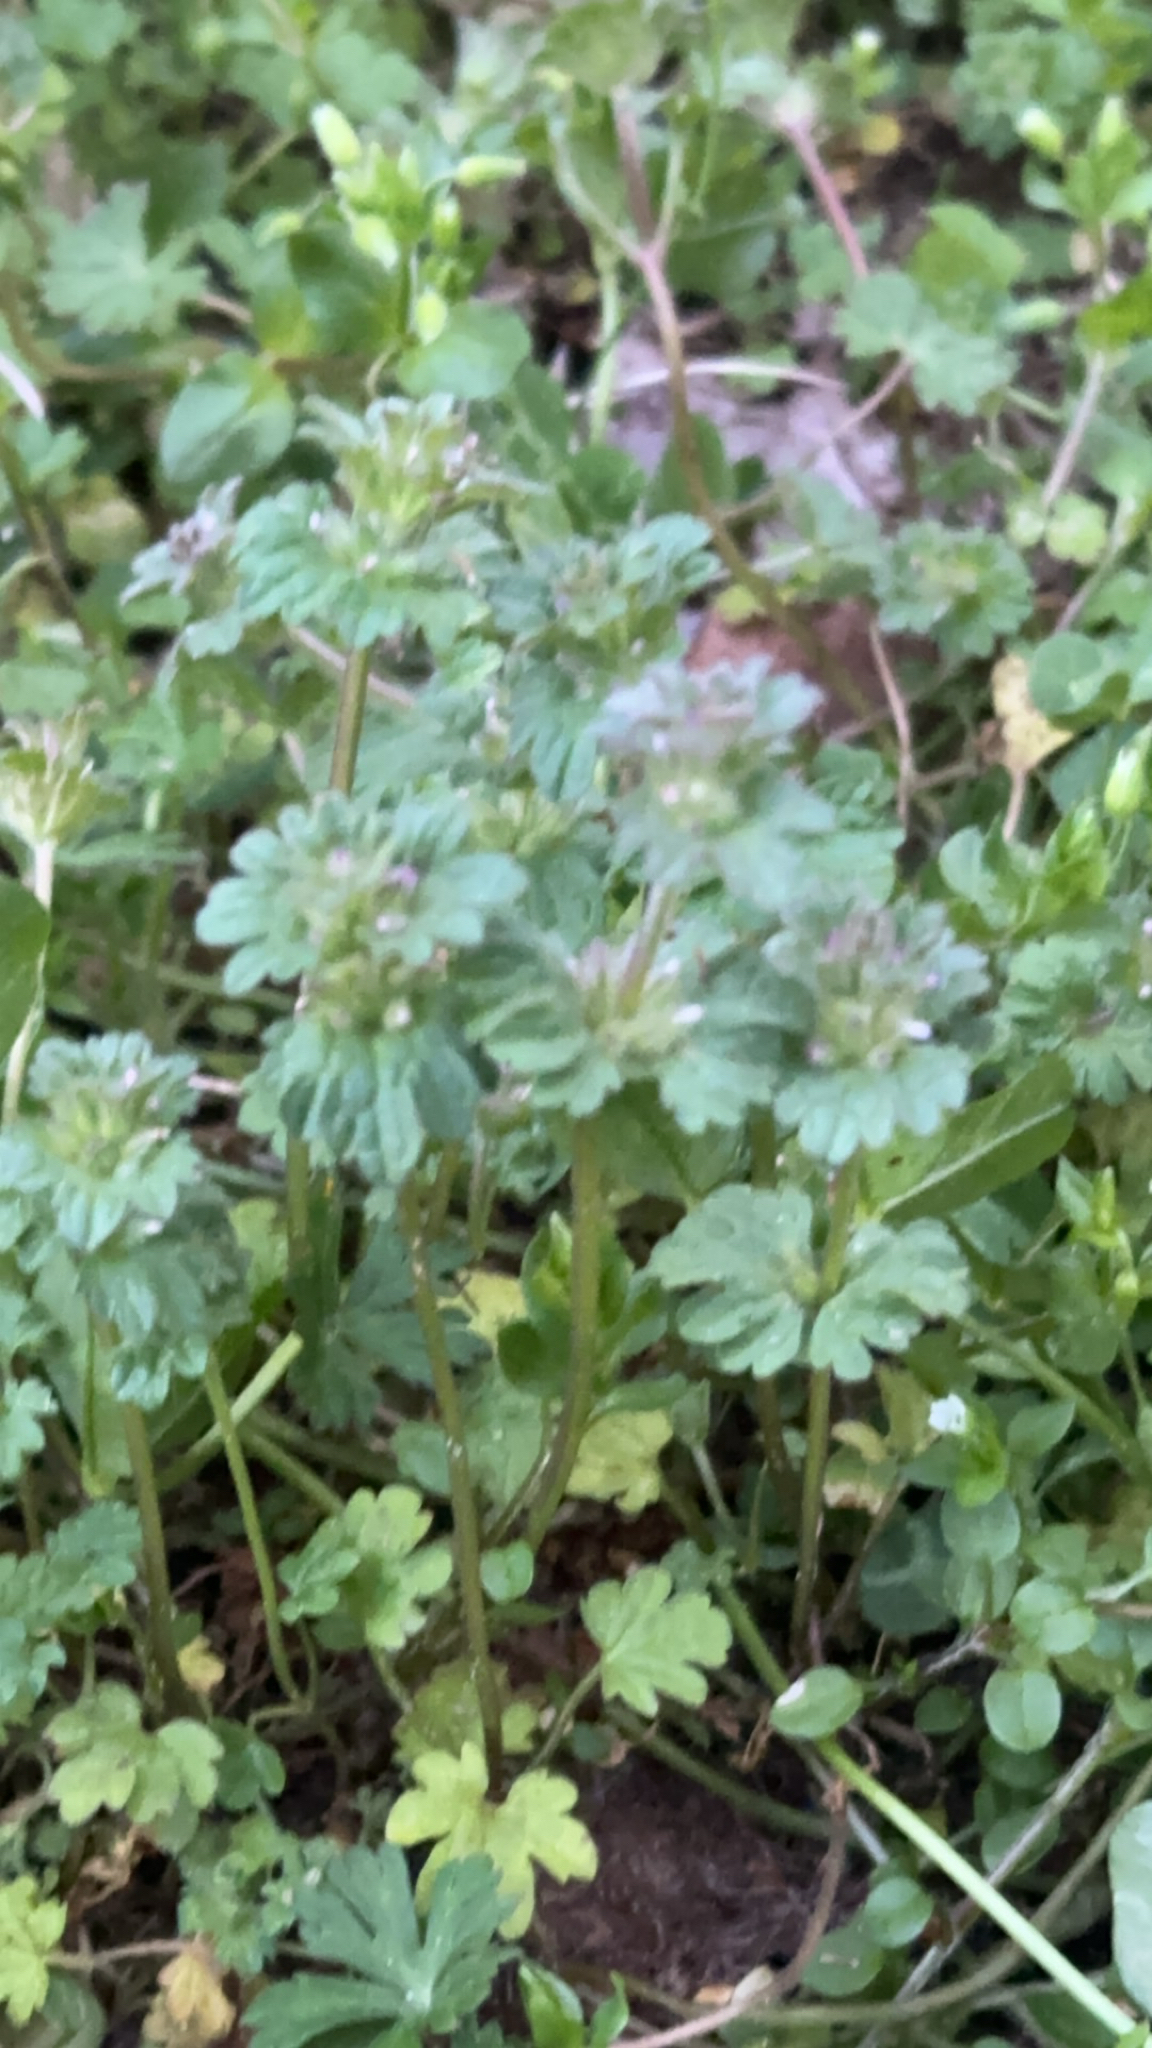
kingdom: Plantae
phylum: Tracheophyta
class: Magnoliopsida
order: Lamiales
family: Lamiaceae
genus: Lamium
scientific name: Lamium amplexicaule
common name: Henbit dead-nettle
